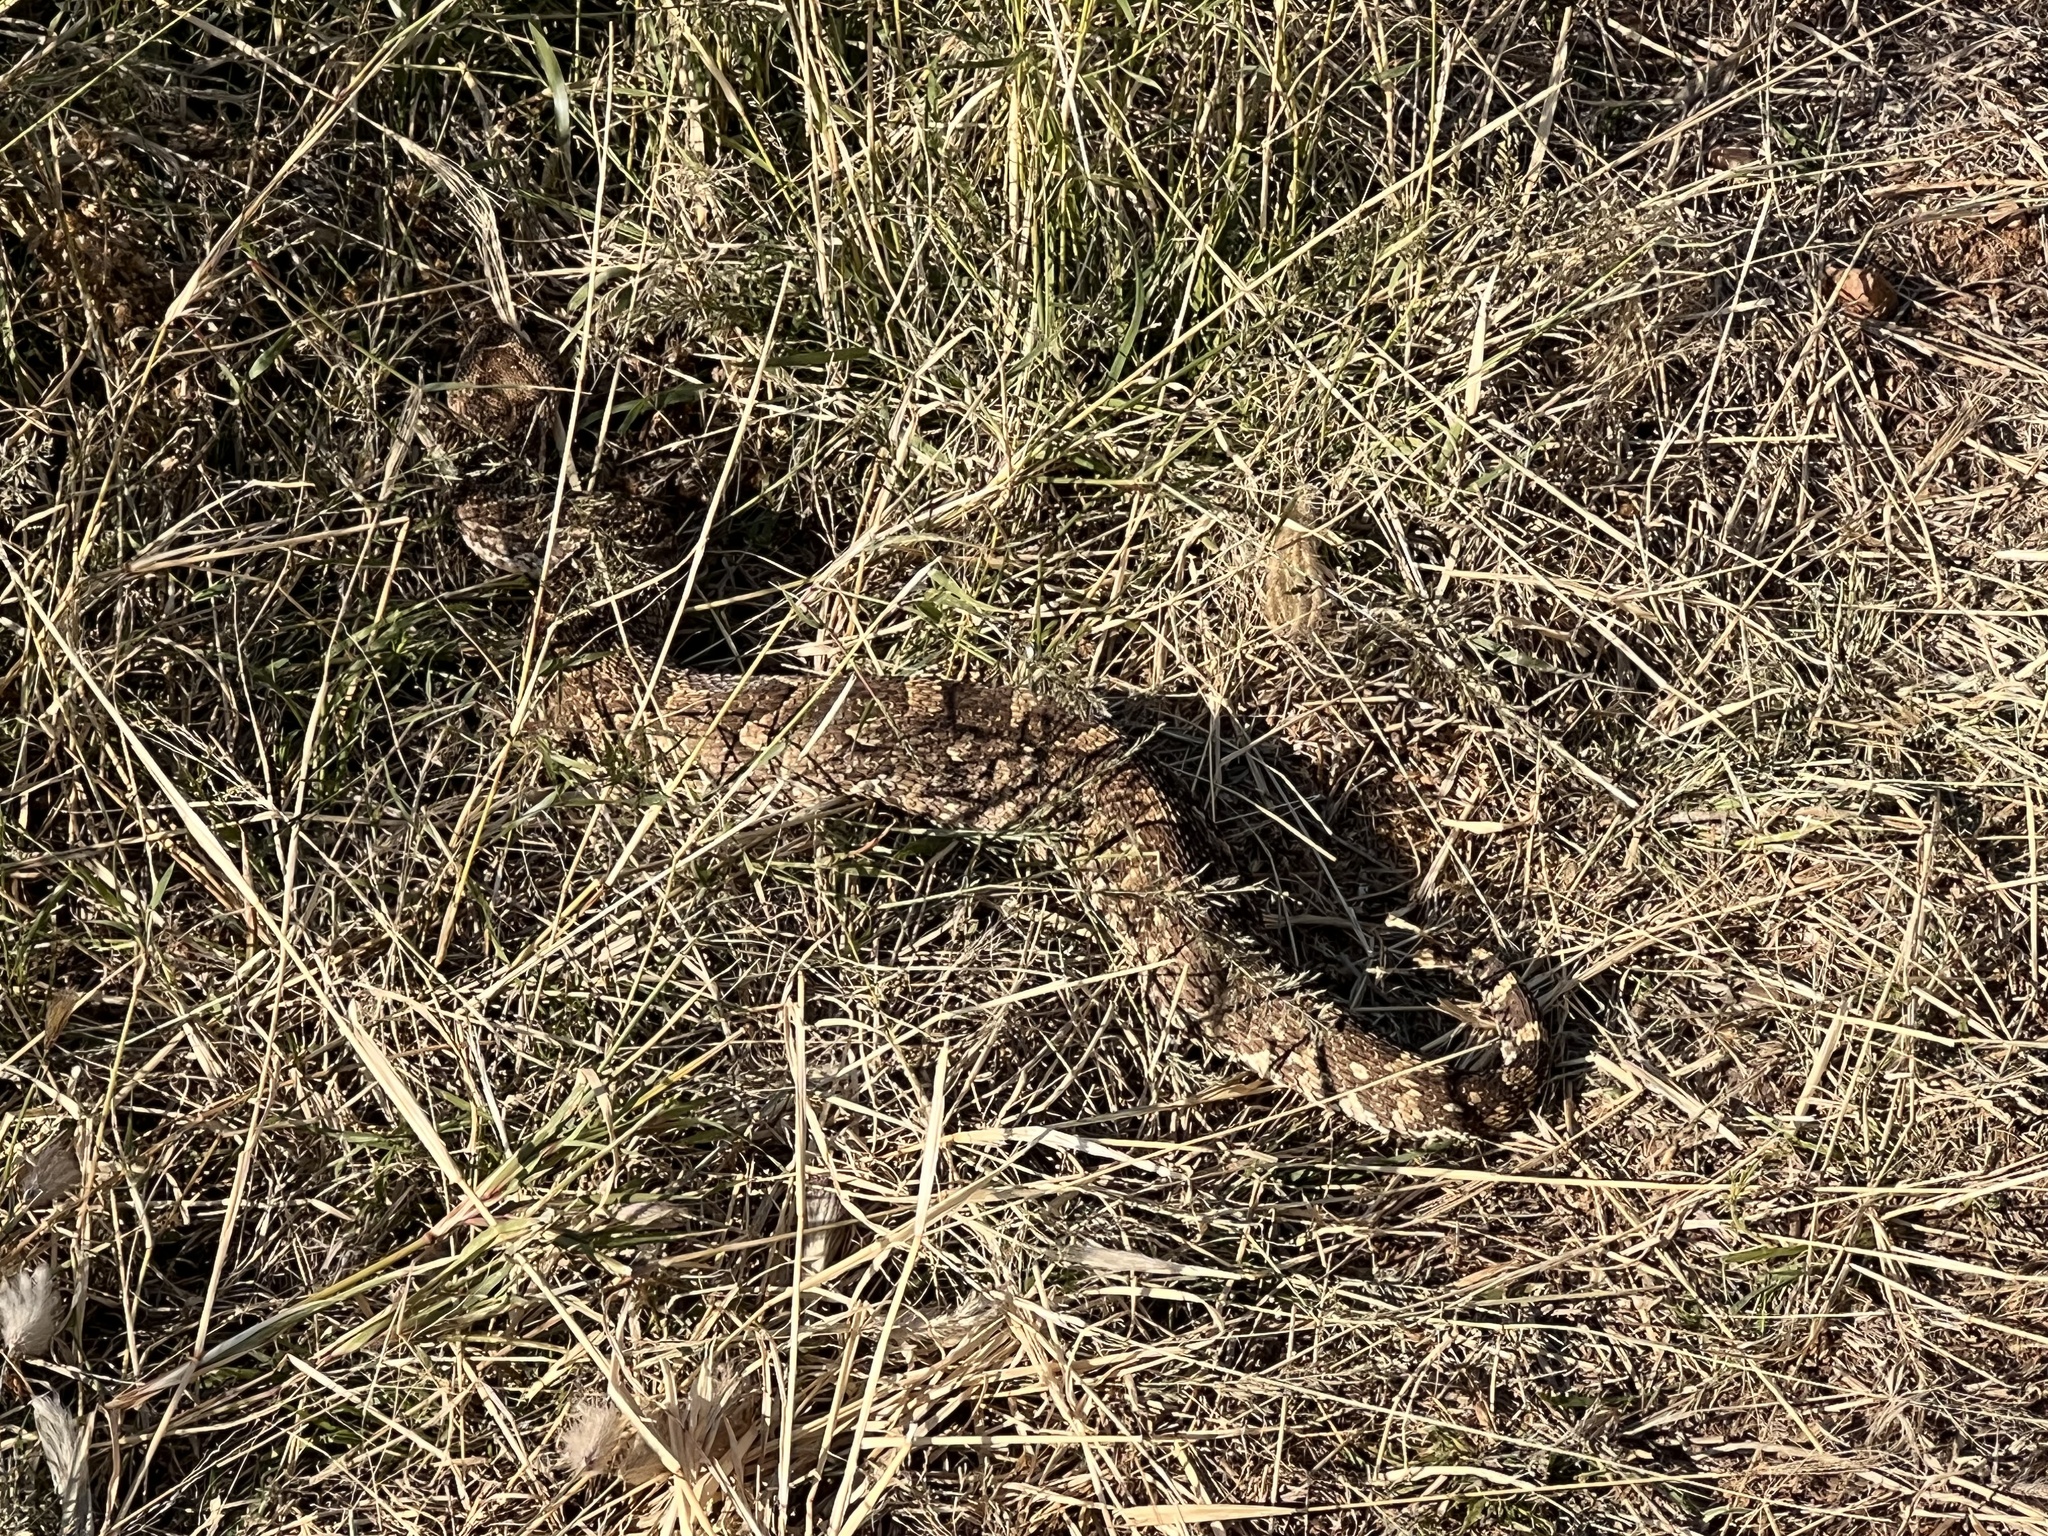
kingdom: Animalia
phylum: Chordata
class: Squamata
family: Viperidae
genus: Bitis
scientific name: Bitis arietans
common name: Puff adder
